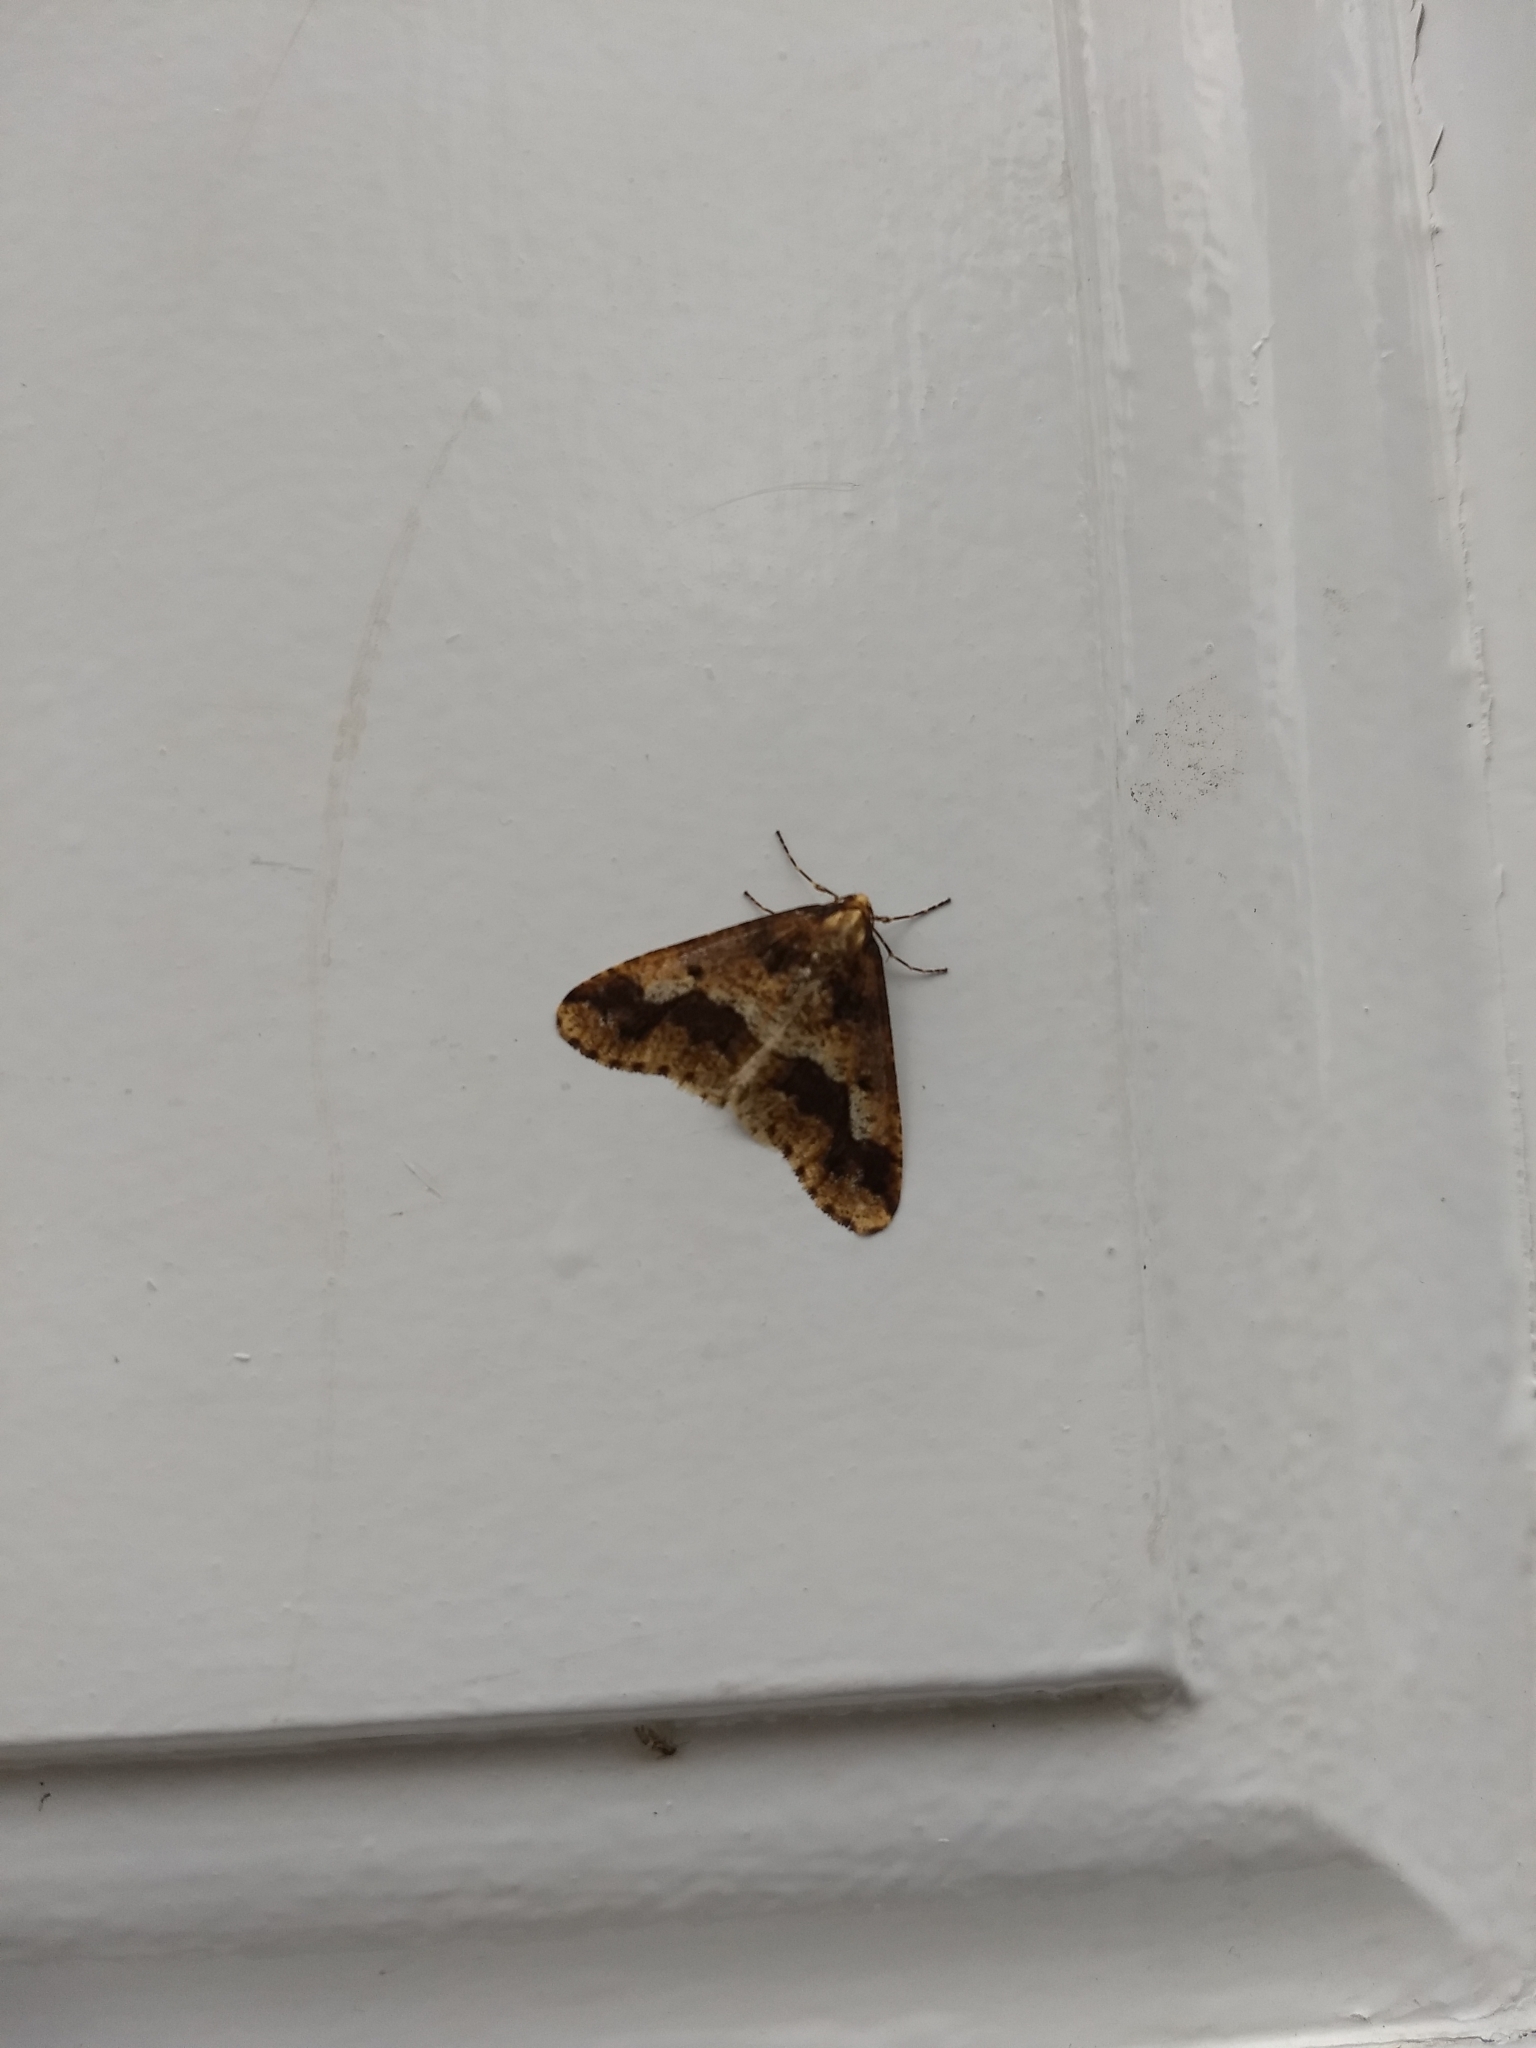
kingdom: Animalia
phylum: Arthropoda
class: Insecta
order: Lepidoptera
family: Geometridae
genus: Erannis
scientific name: Erannis defoliaria
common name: Mottled umber
